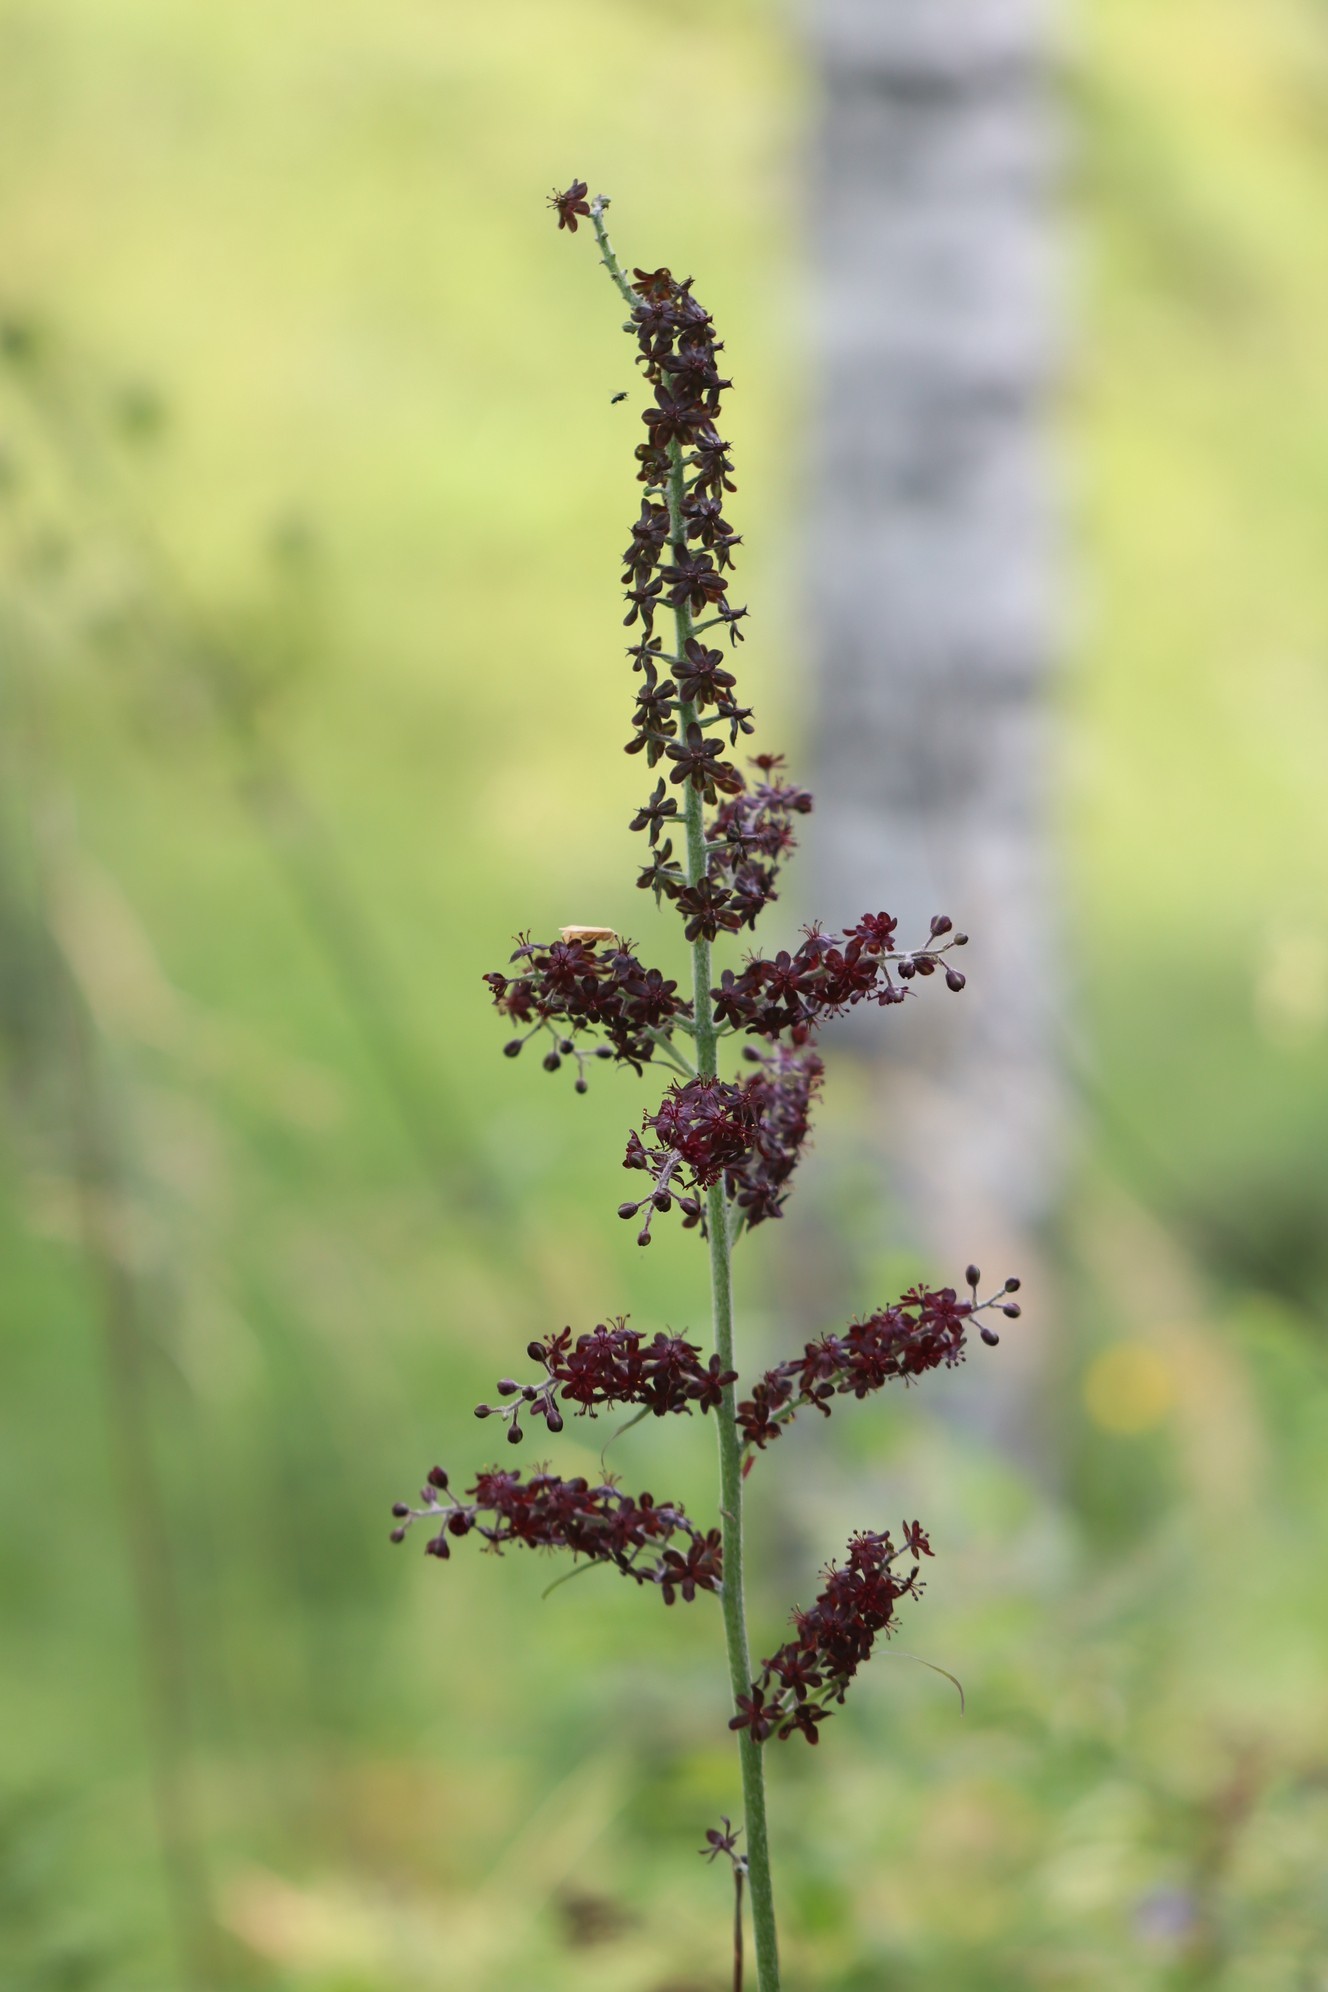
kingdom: Plantae
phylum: Tracheophyta
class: Liliopsida
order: Liliales
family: Melanthiaceae
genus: Veratrum
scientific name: Veratrum nigrum
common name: Black veratrum
